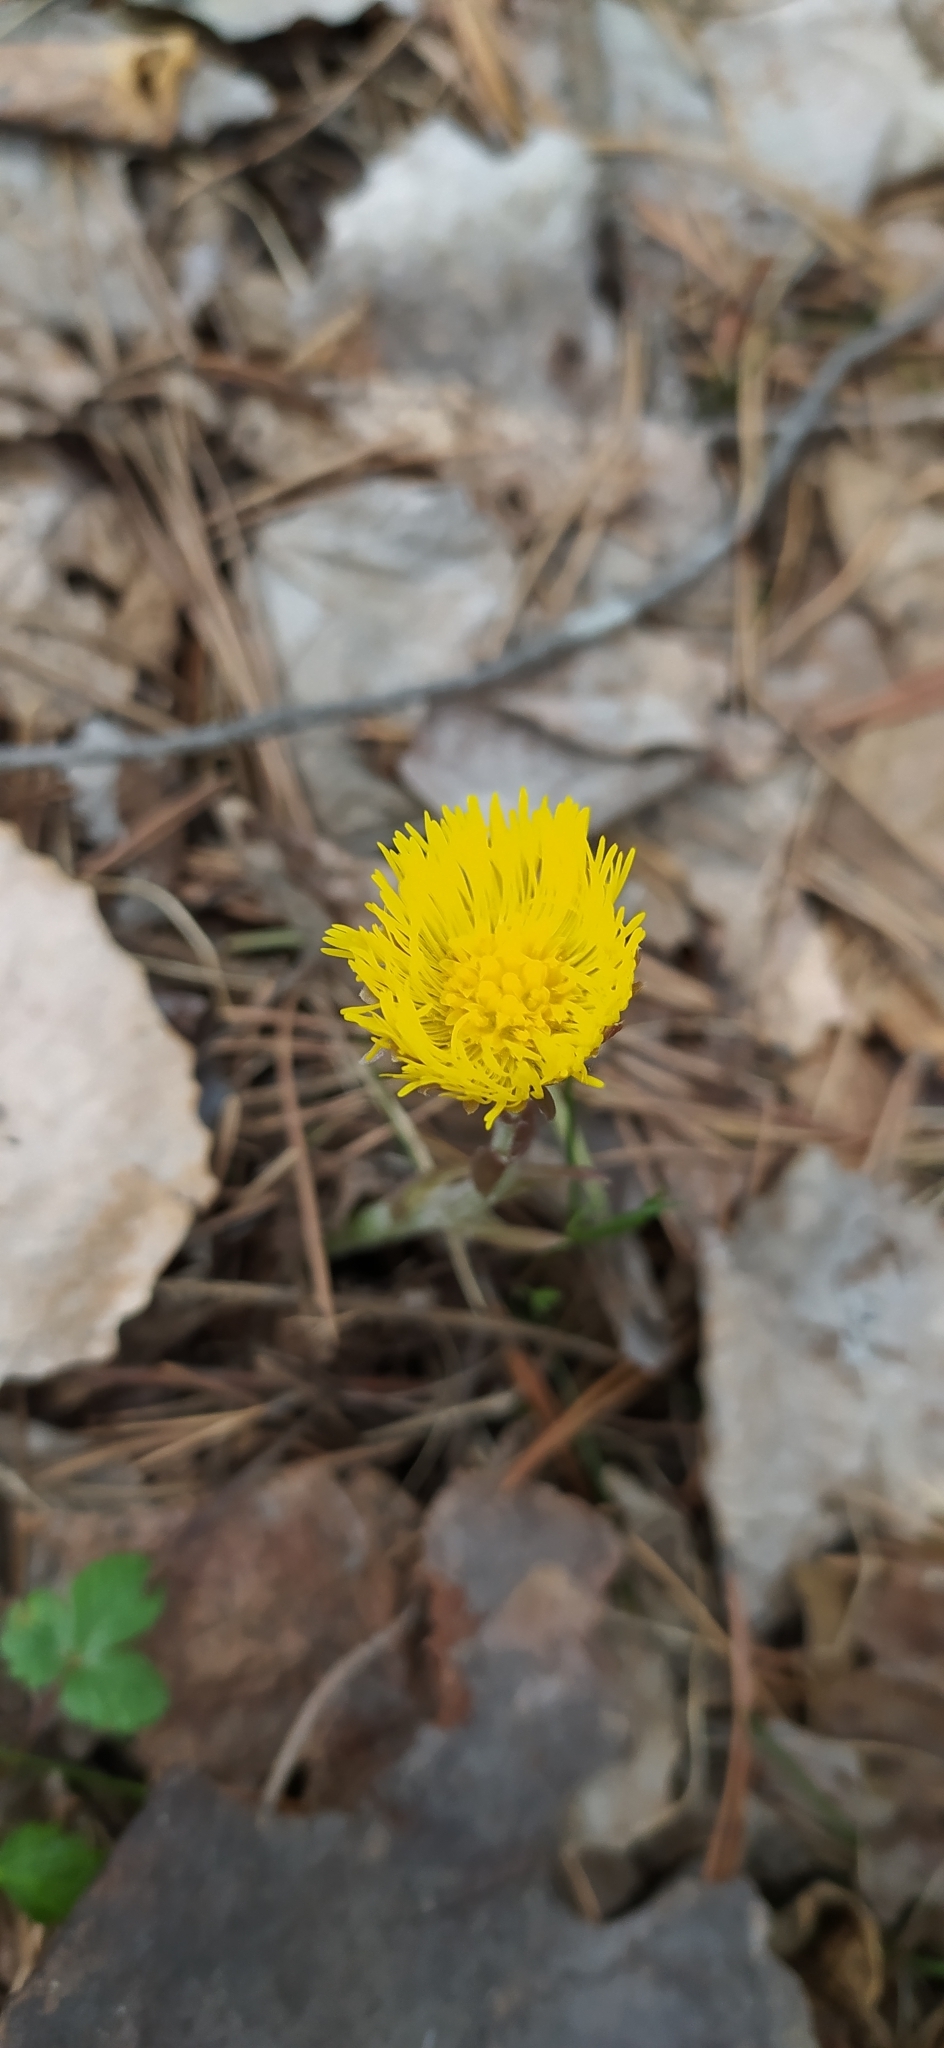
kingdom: Plantae
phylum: Tracheophyta
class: Magnoliopsida
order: Asterales
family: Asteraceae
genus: Tussilago
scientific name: Tussilago farfara
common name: Coltsfoot
